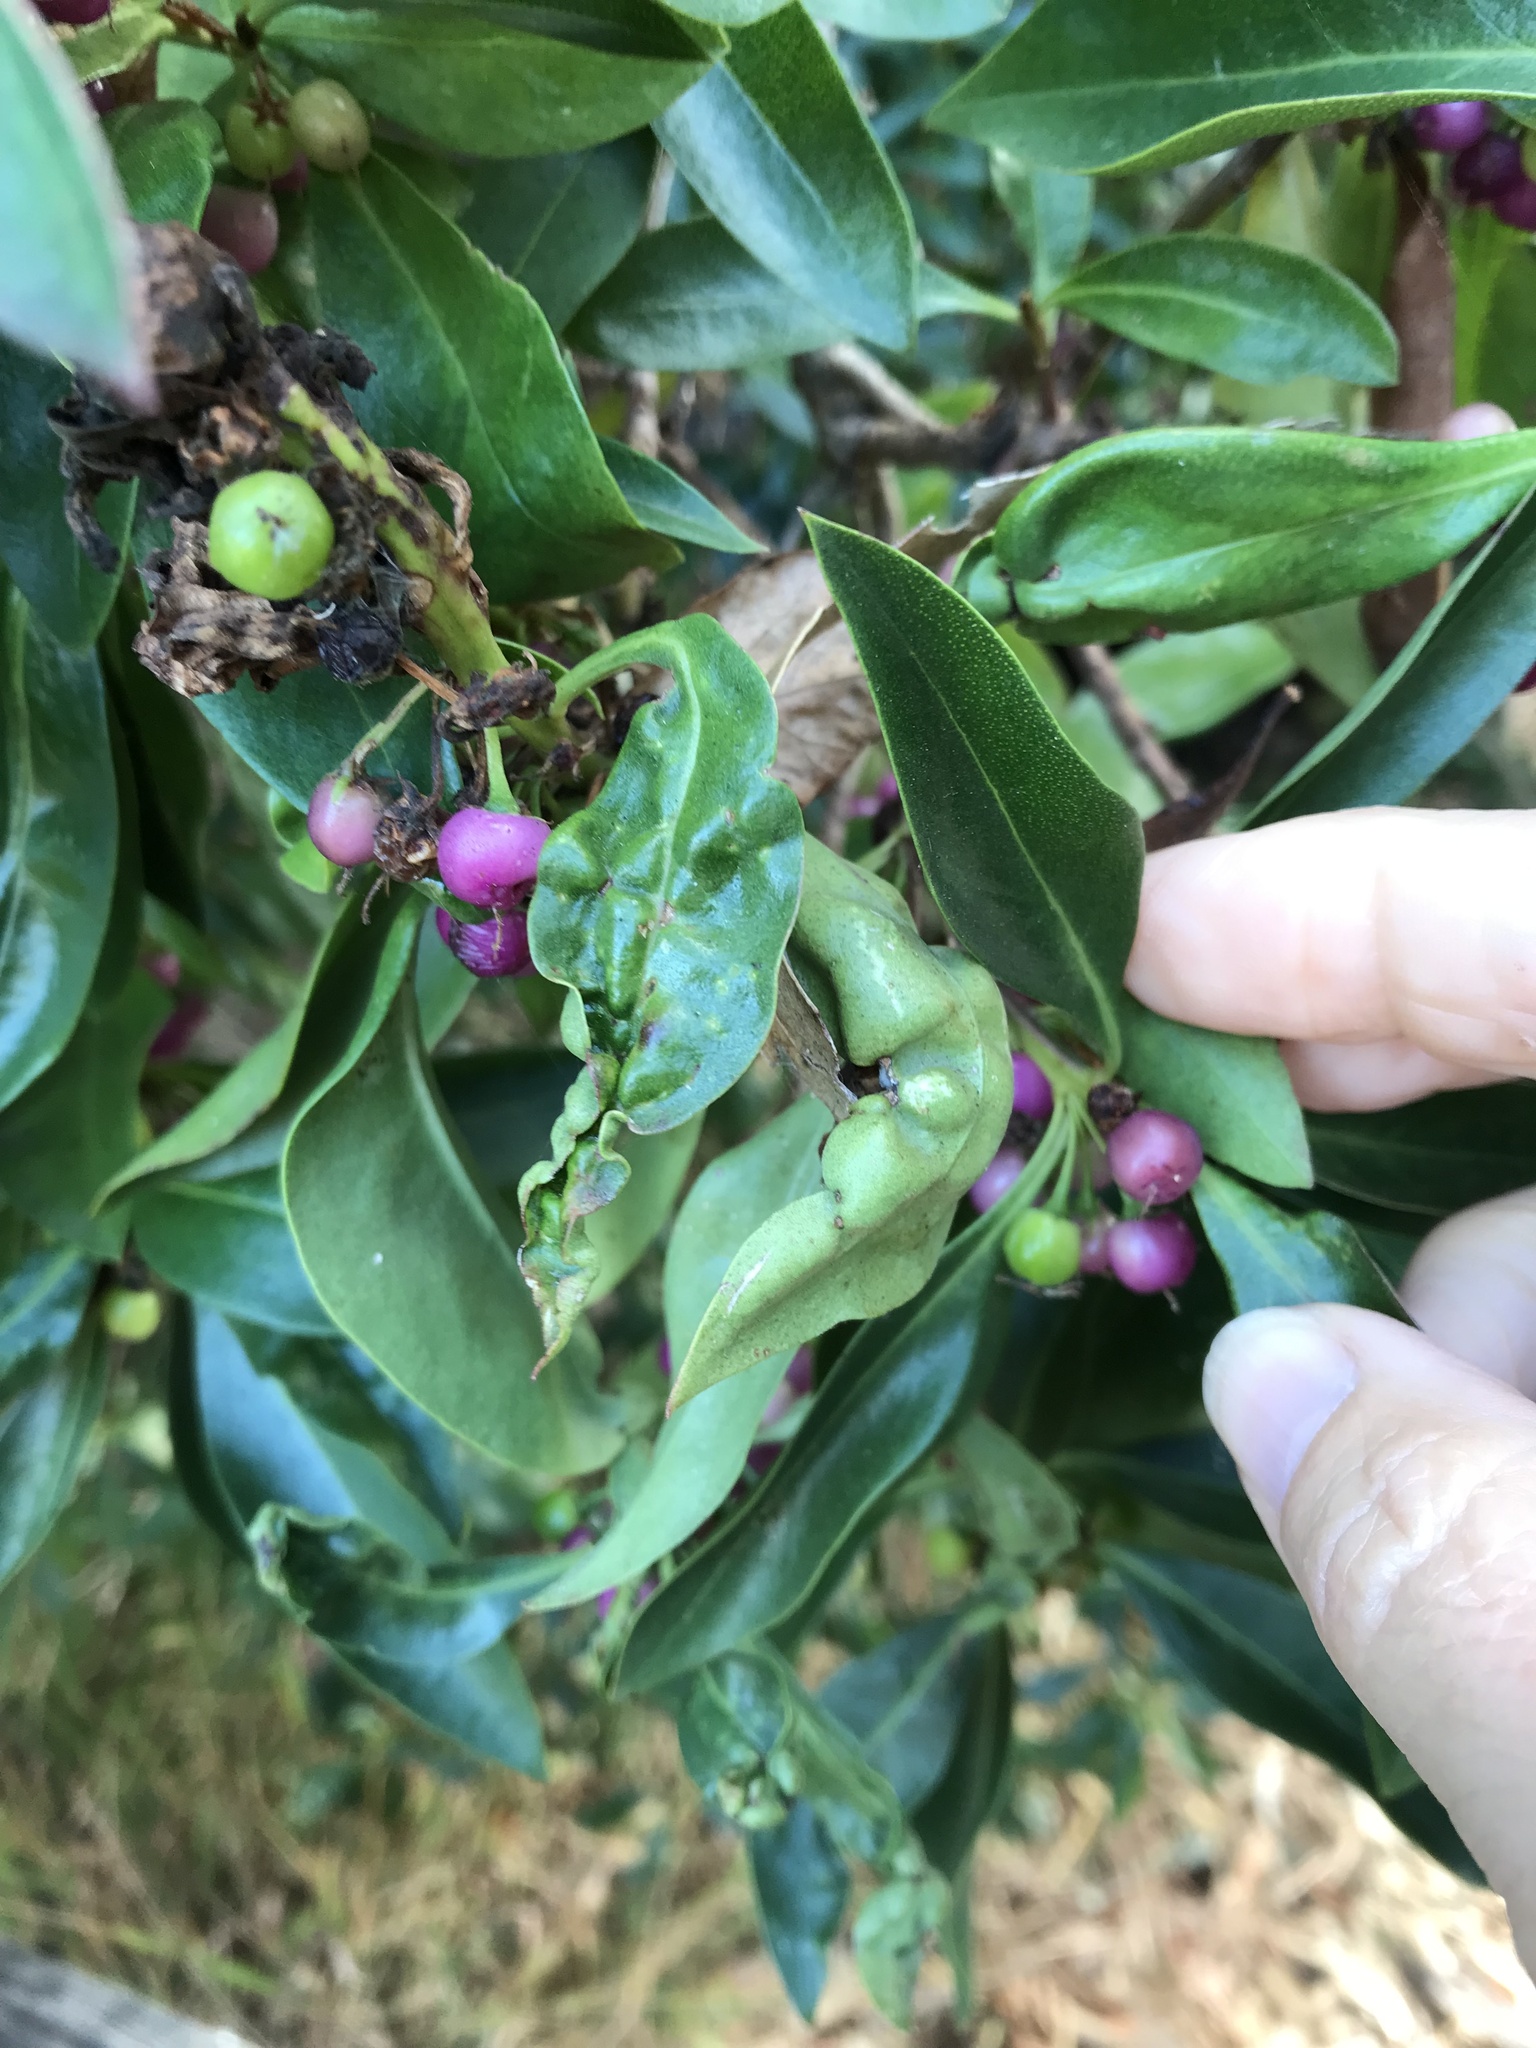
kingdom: Animalia
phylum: Arthropoda
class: Insecta
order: Thysanoptera
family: Phlaeothripidae
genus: Klambothrips
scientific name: Klambothrips myopori
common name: Myoporum thrips
